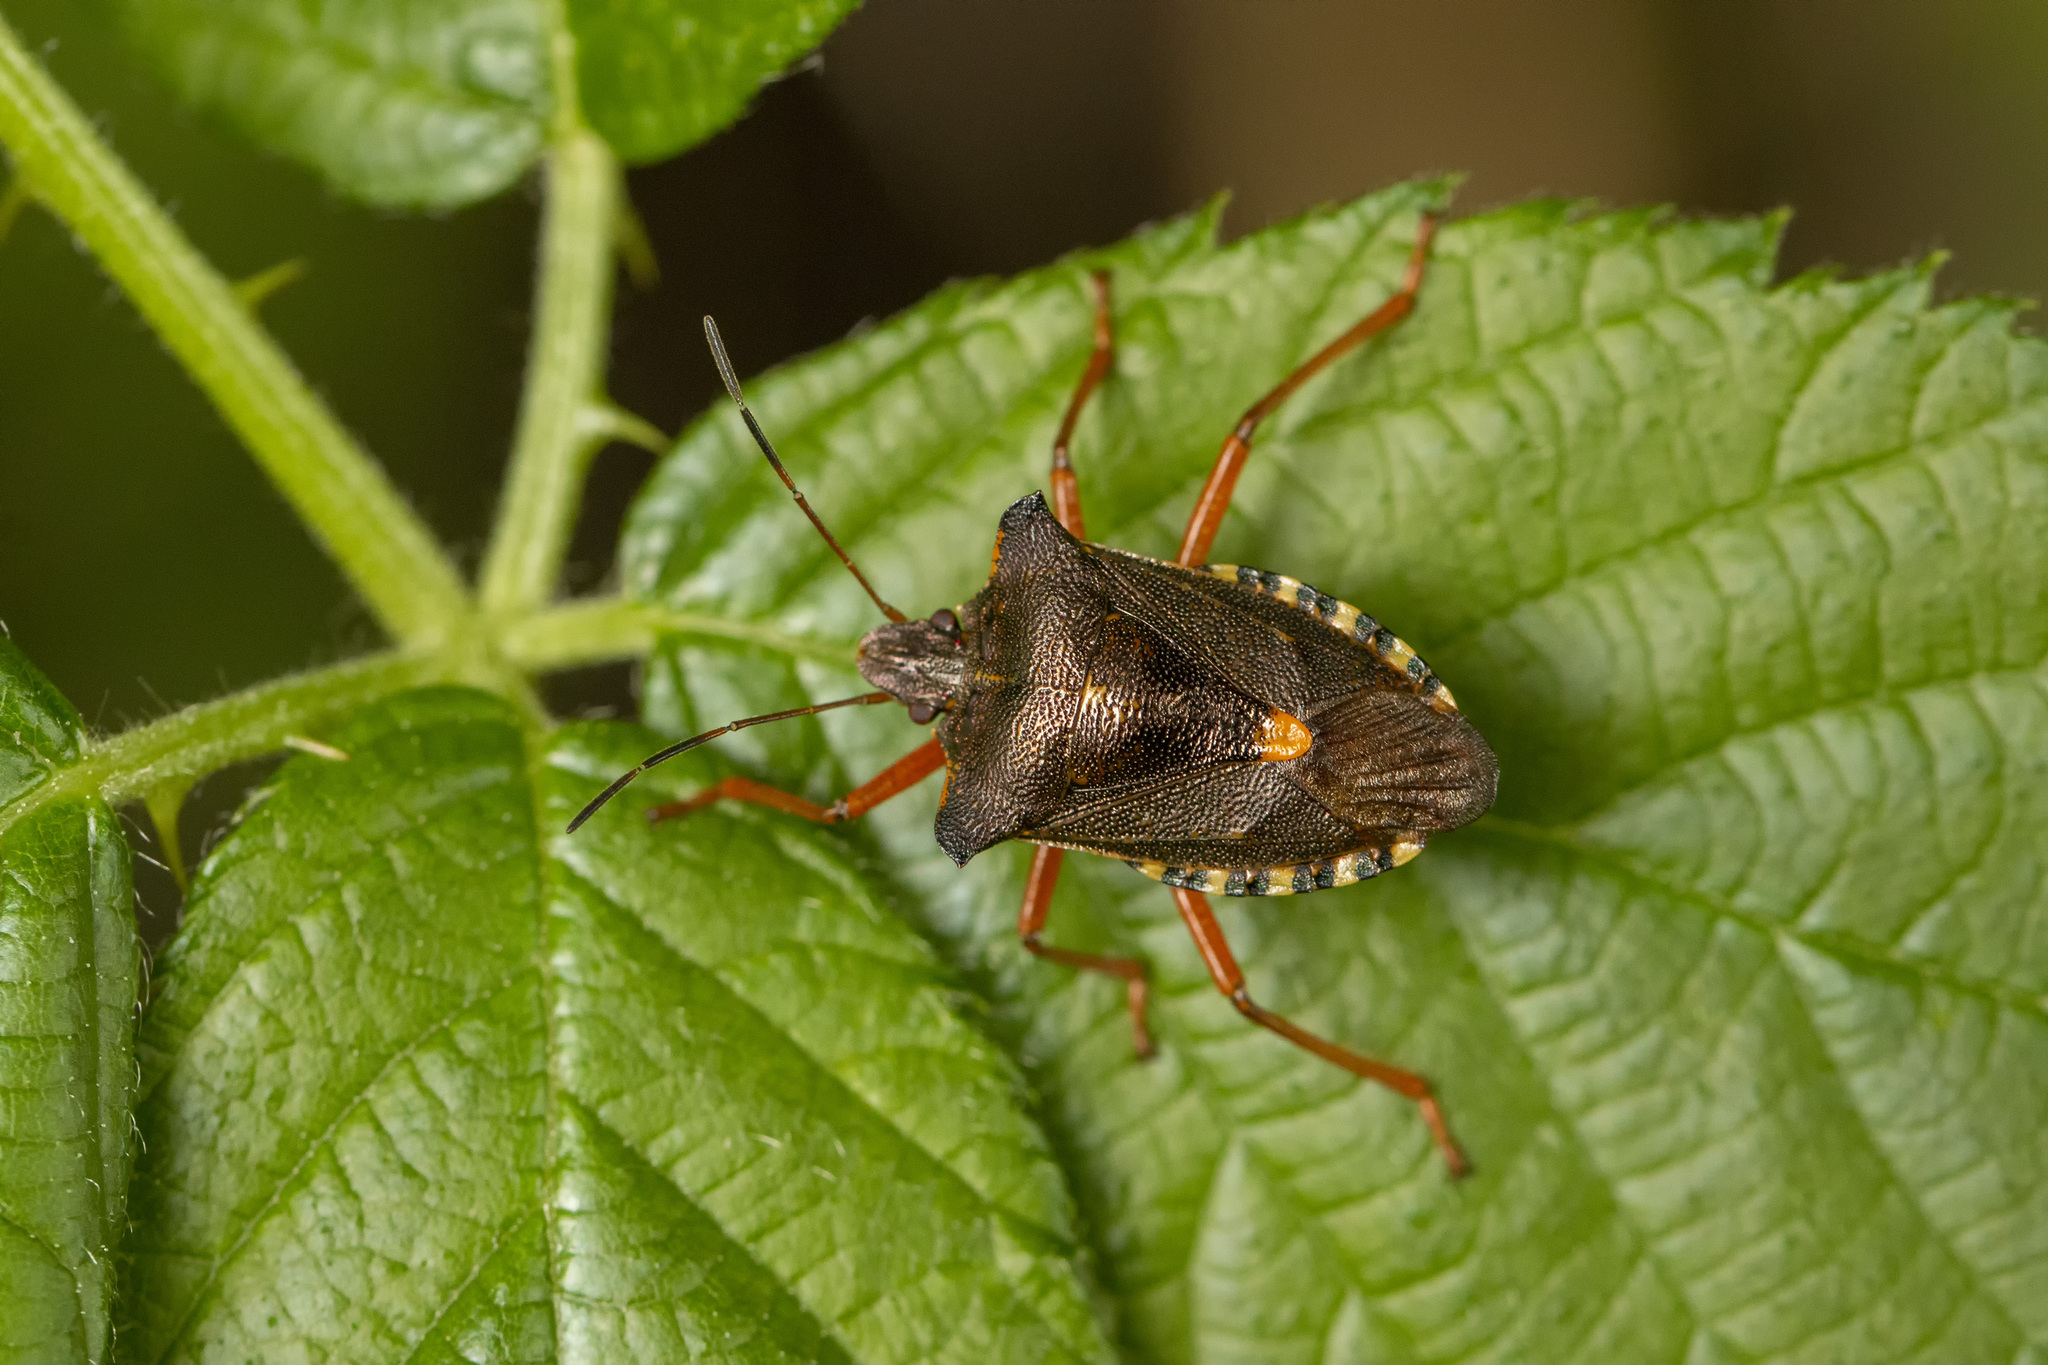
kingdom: Animalia
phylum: Arthropoda
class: Insecta
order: Hemiptera
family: Pentatomidae
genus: Pentatoma
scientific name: Pentatoma rufipes
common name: Forest bug
